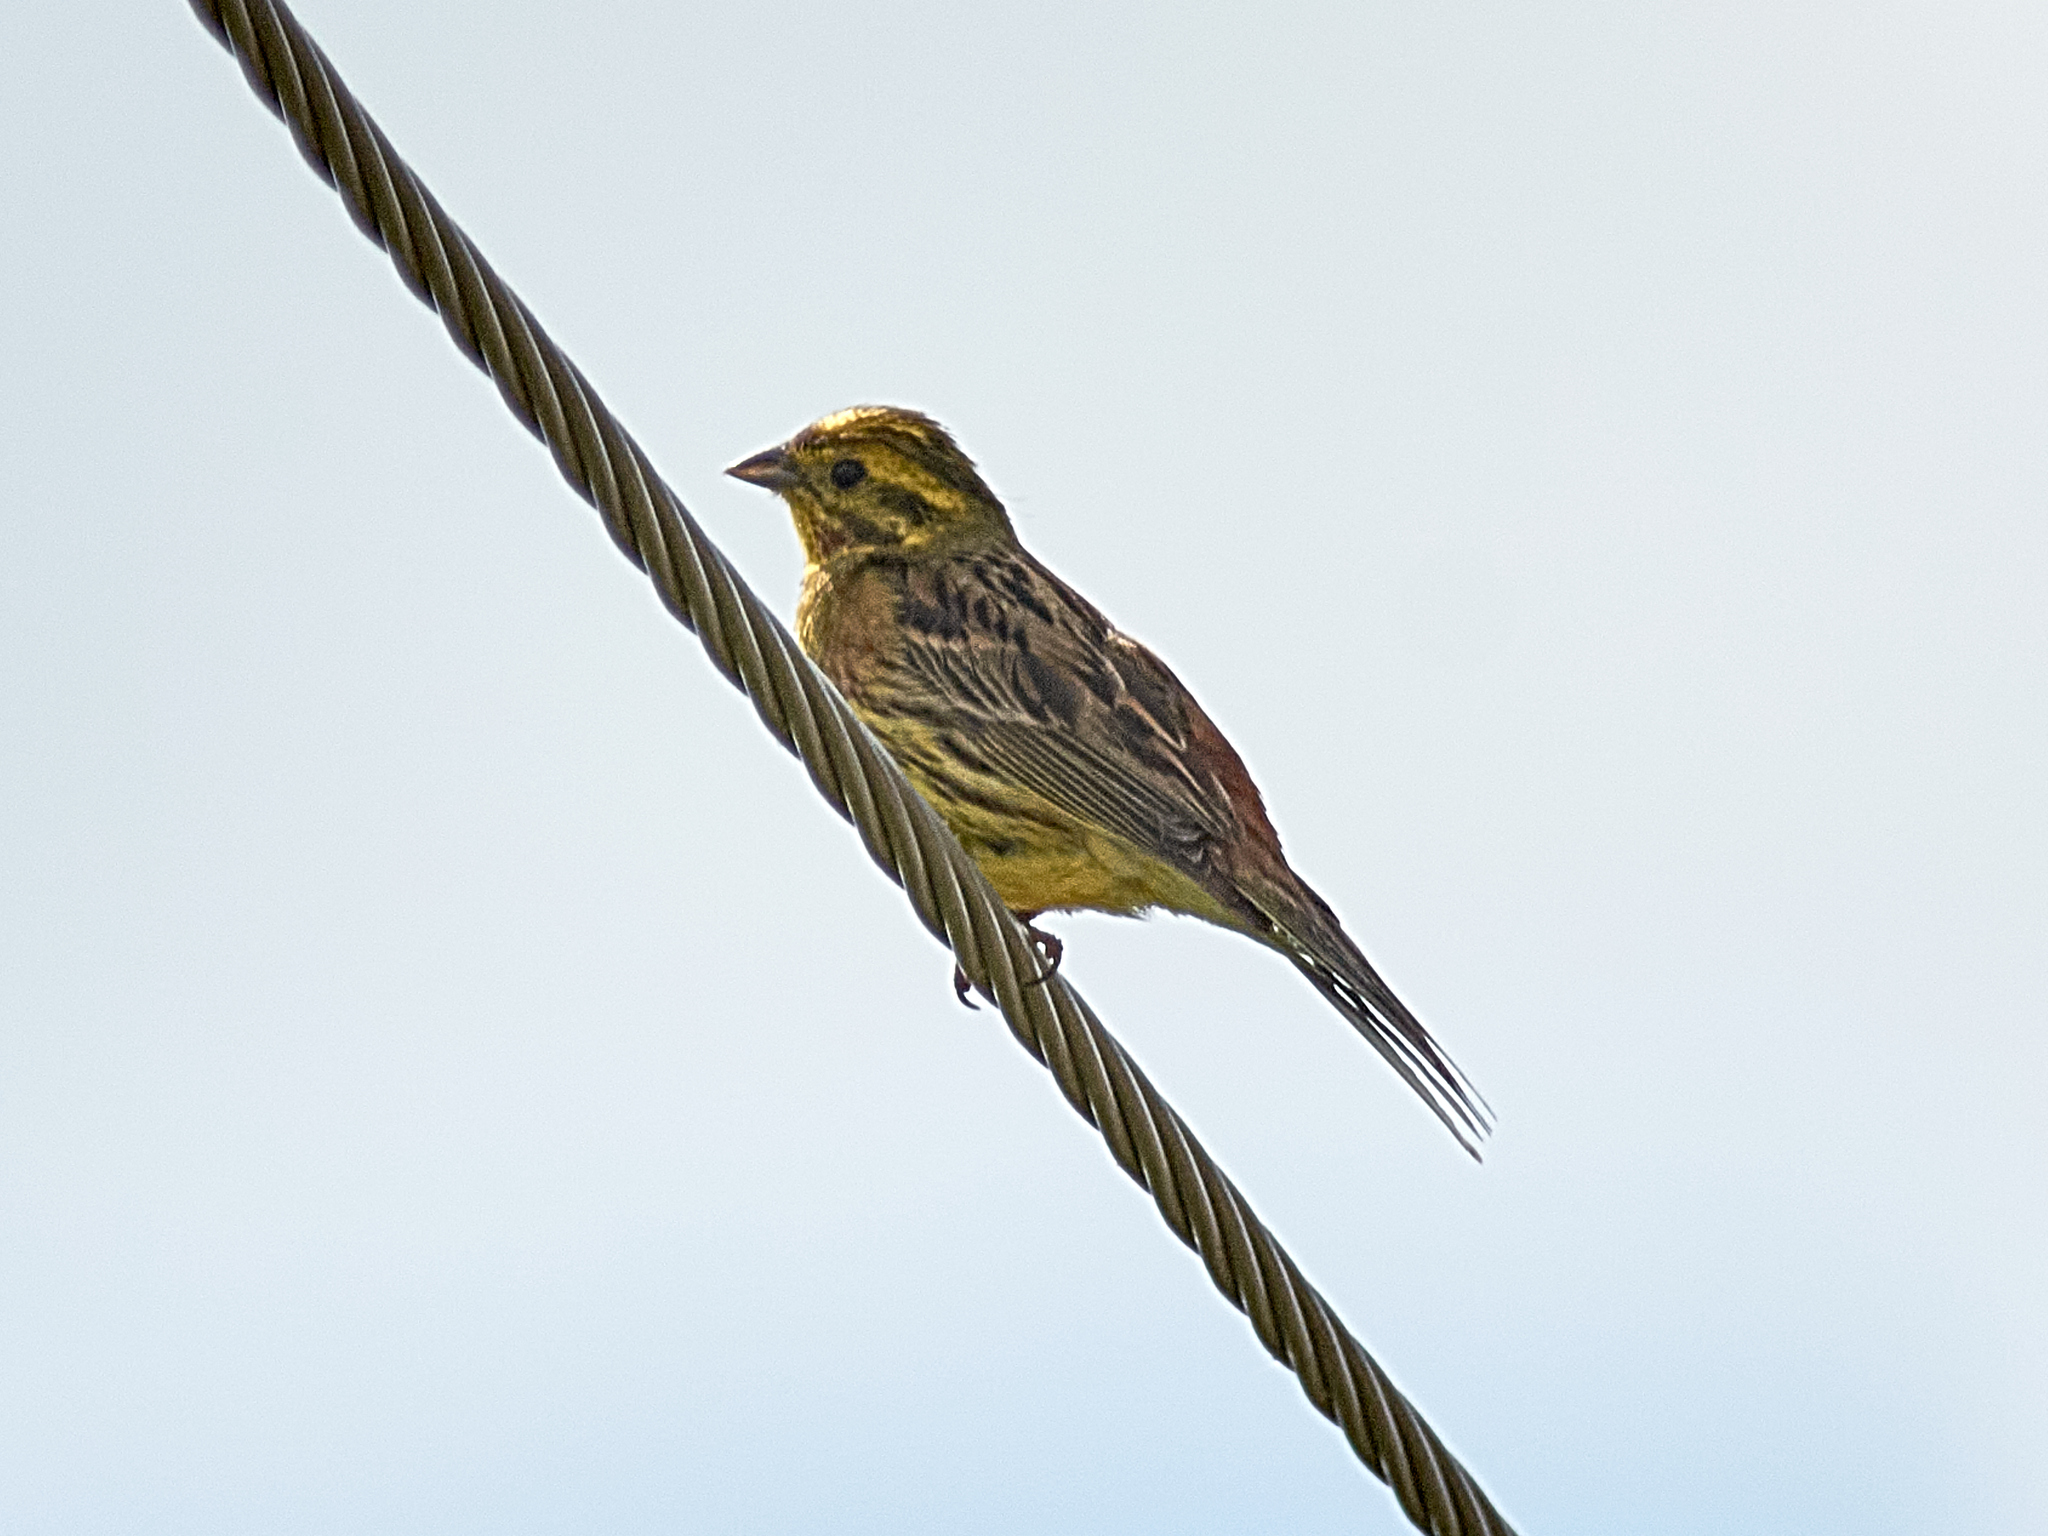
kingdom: Animalia
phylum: Chordata
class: Aves
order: Passeriformes
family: Emberizidae
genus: Emberiza
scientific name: Emberiza citrinella
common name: Yellowhammer
